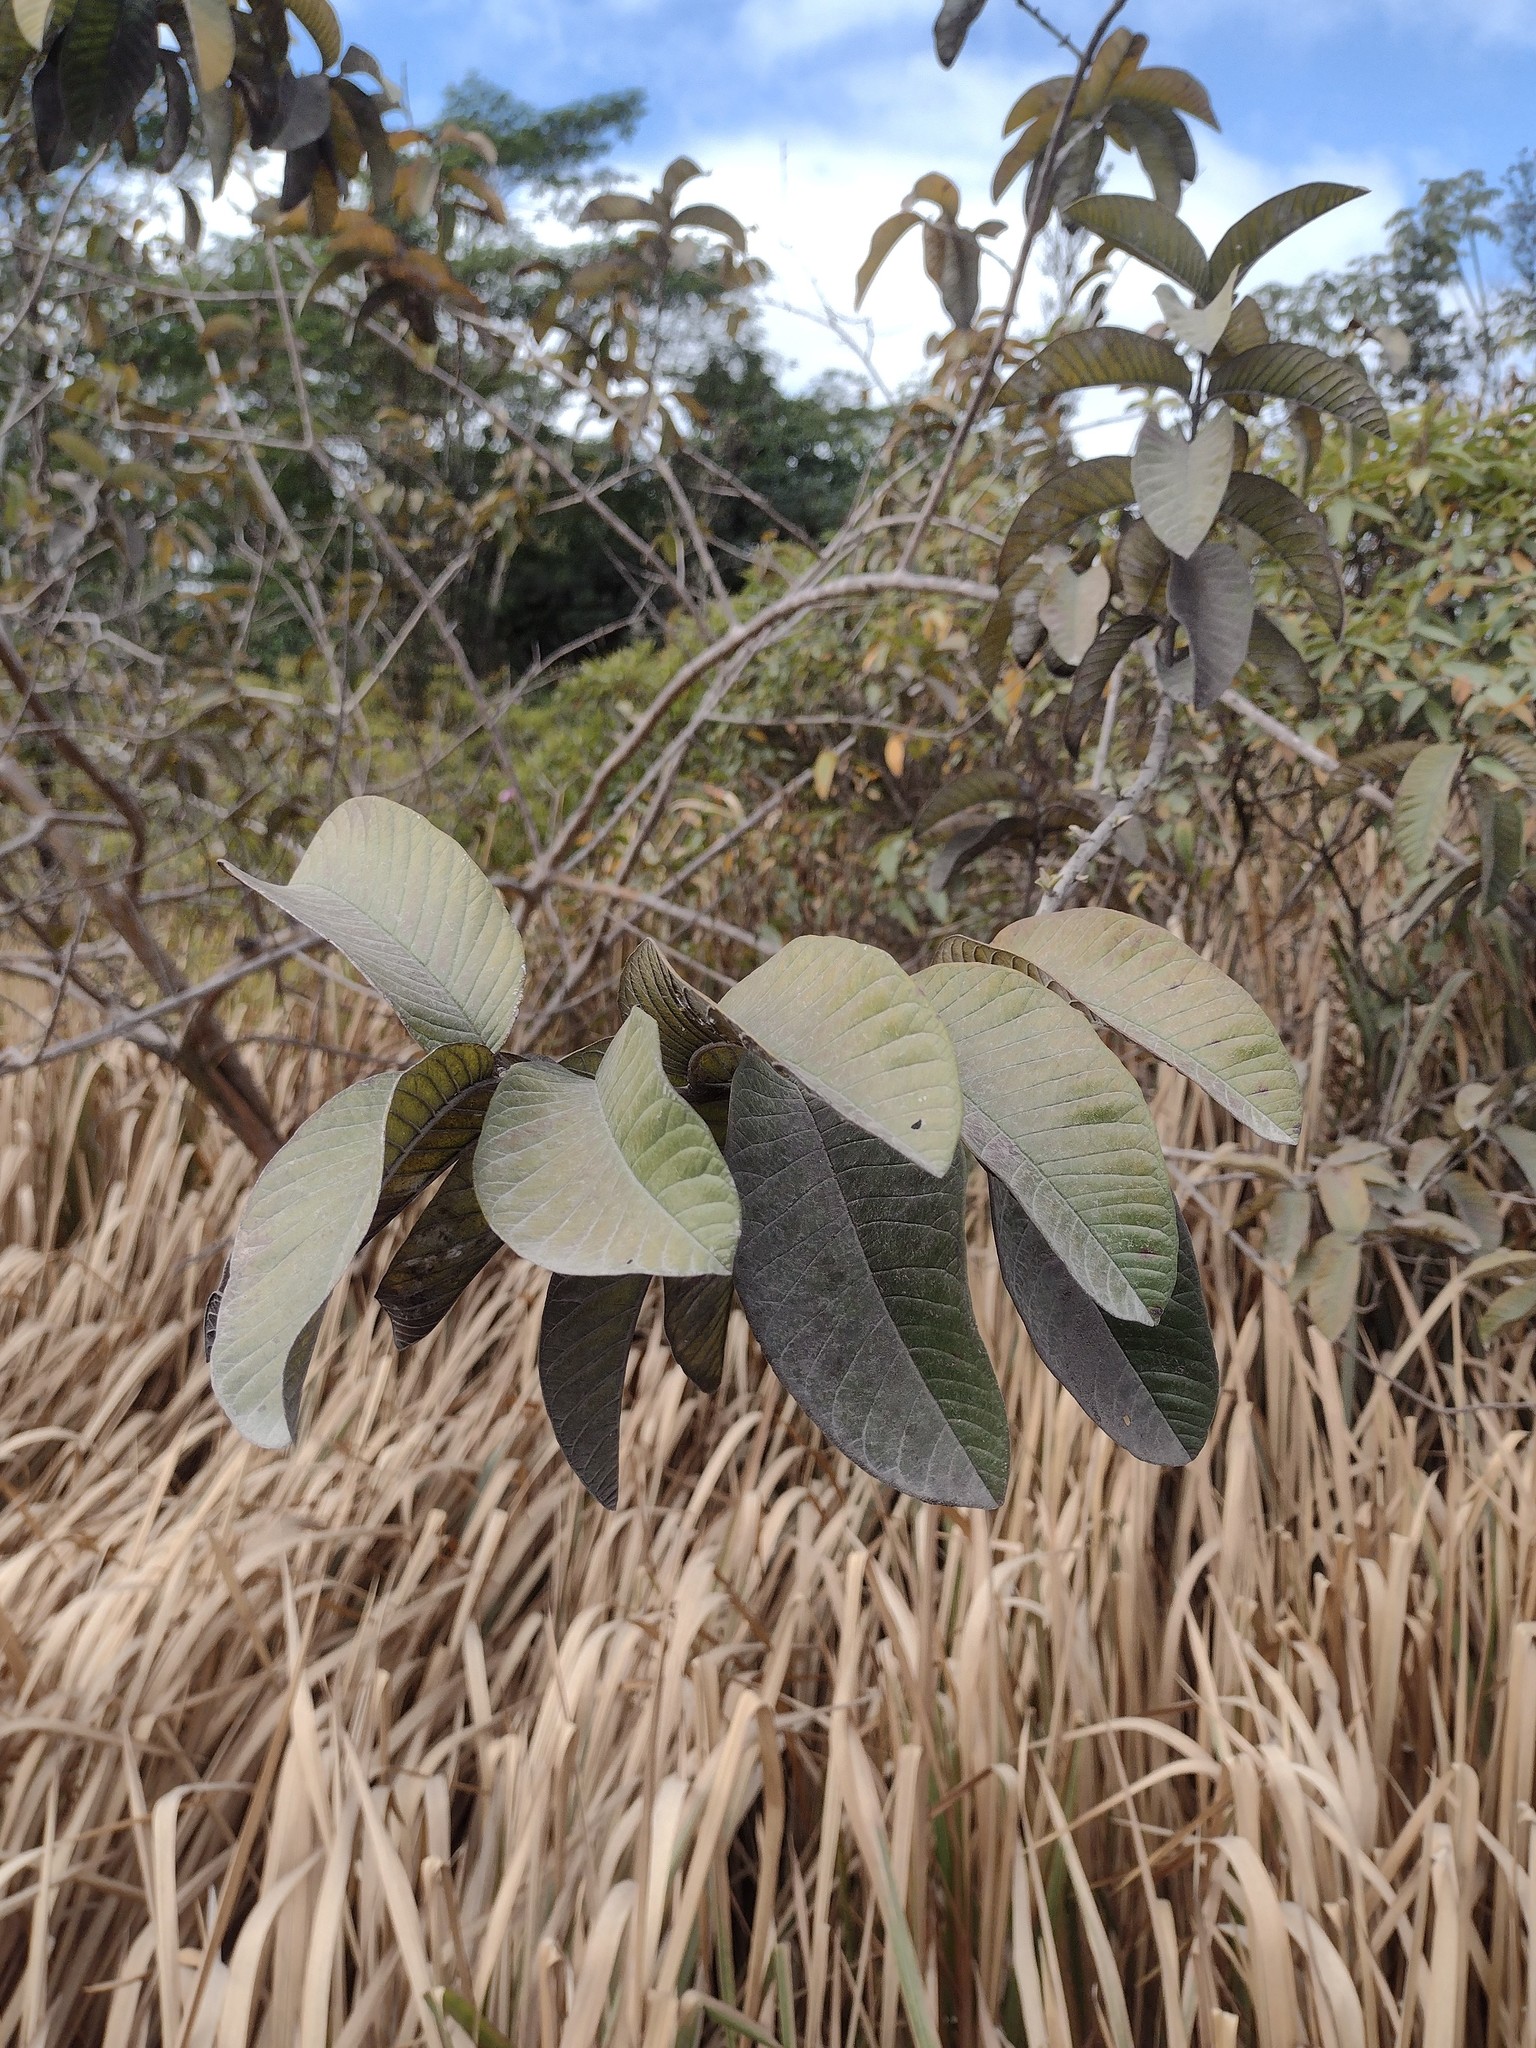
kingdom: Plantae
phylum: Tracheophyta
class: Magnoliopsida
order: Myrtales
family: Myrtaceae
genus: Psidium
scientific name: Psidium guajava
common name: Guava
